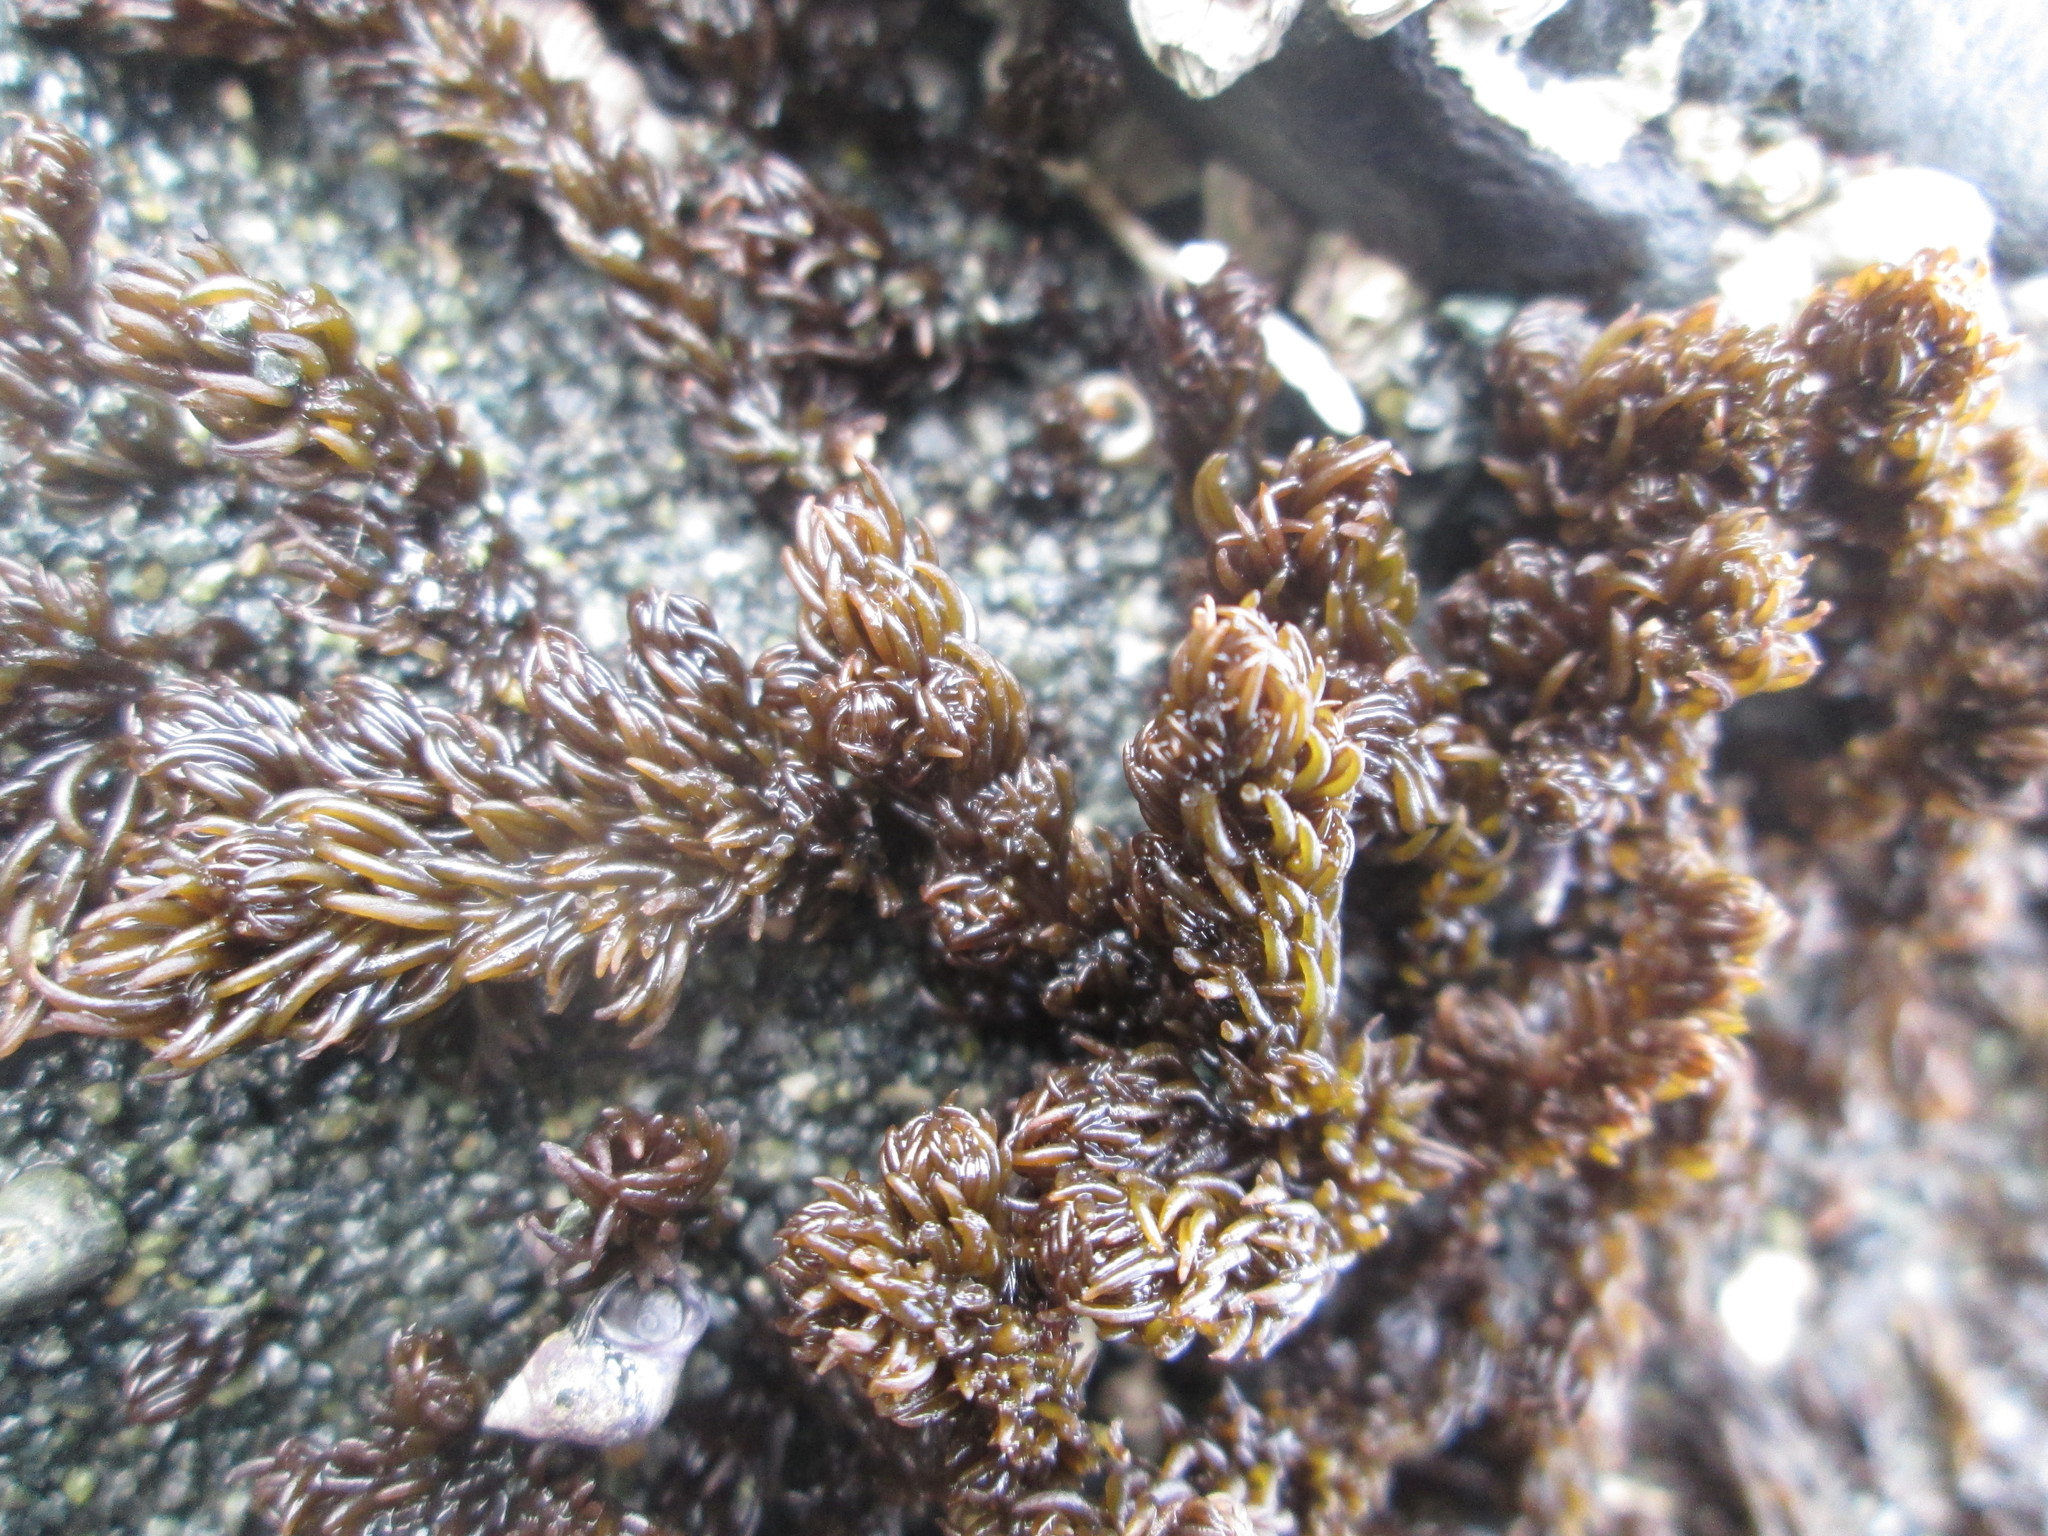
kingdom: Plantae
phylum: Rhodophyta
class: Florideophyceae
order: Ceramiales
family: Rhodomelaceae
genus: Neorhodomela
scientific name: Neorhodomela larix
